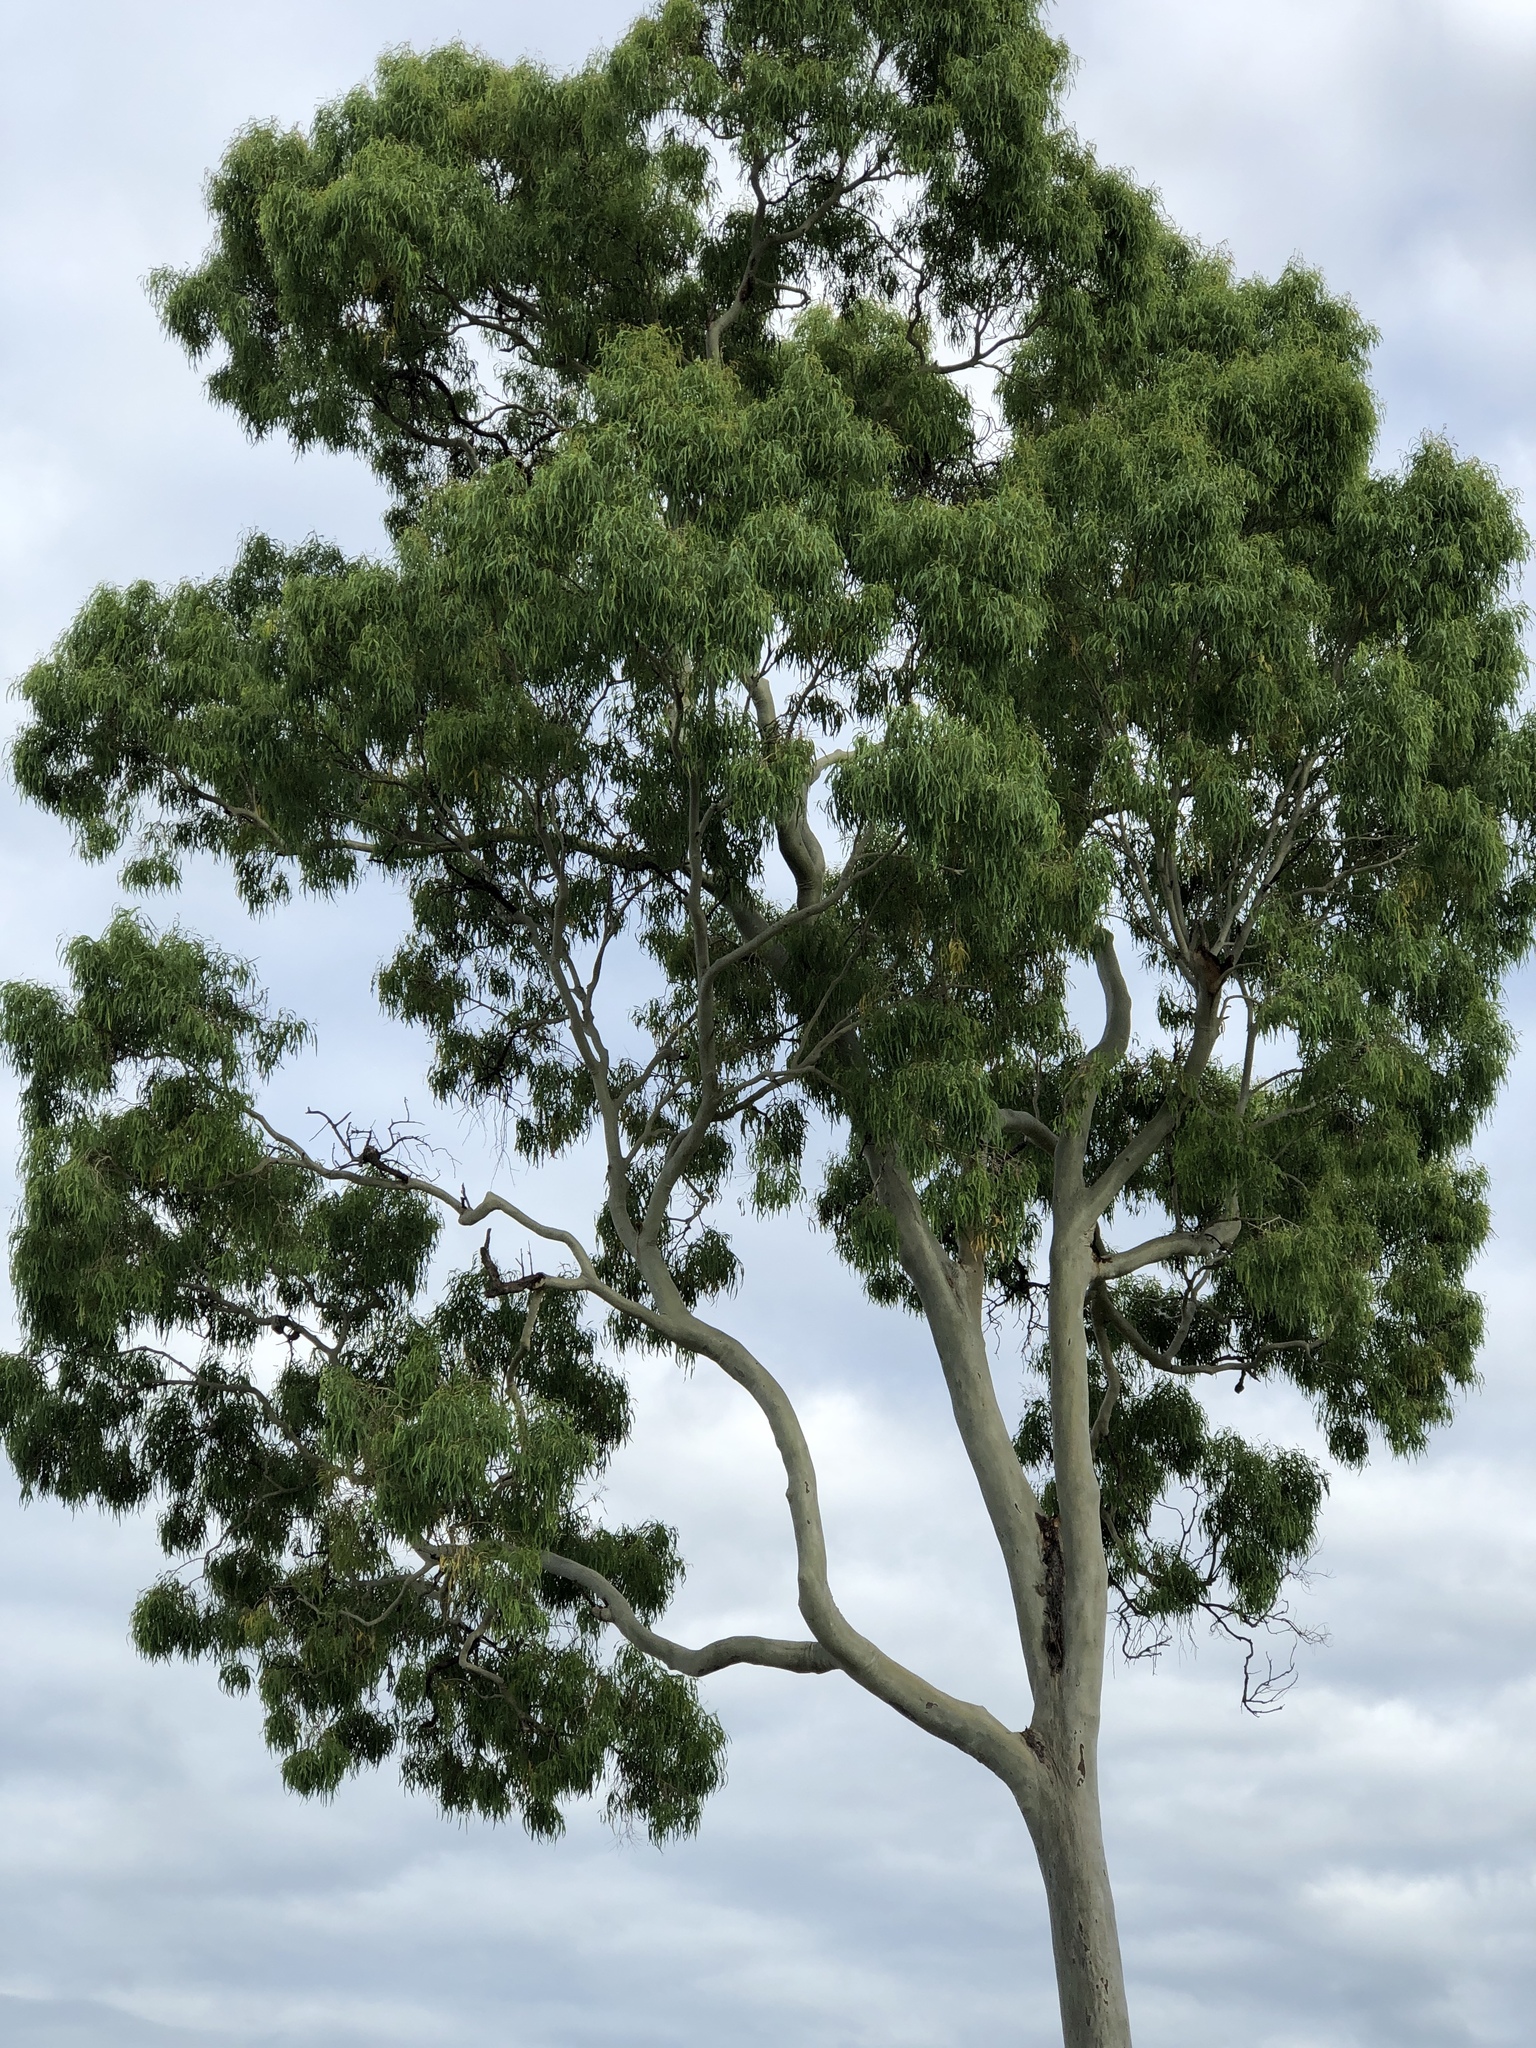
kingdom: Plantae
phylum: Tracheophyta
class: Magnoliopsida
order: Myrtales
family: Myrtaceae
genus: Corymbia
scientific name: Corymbia tessellaris
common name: Carbeen
